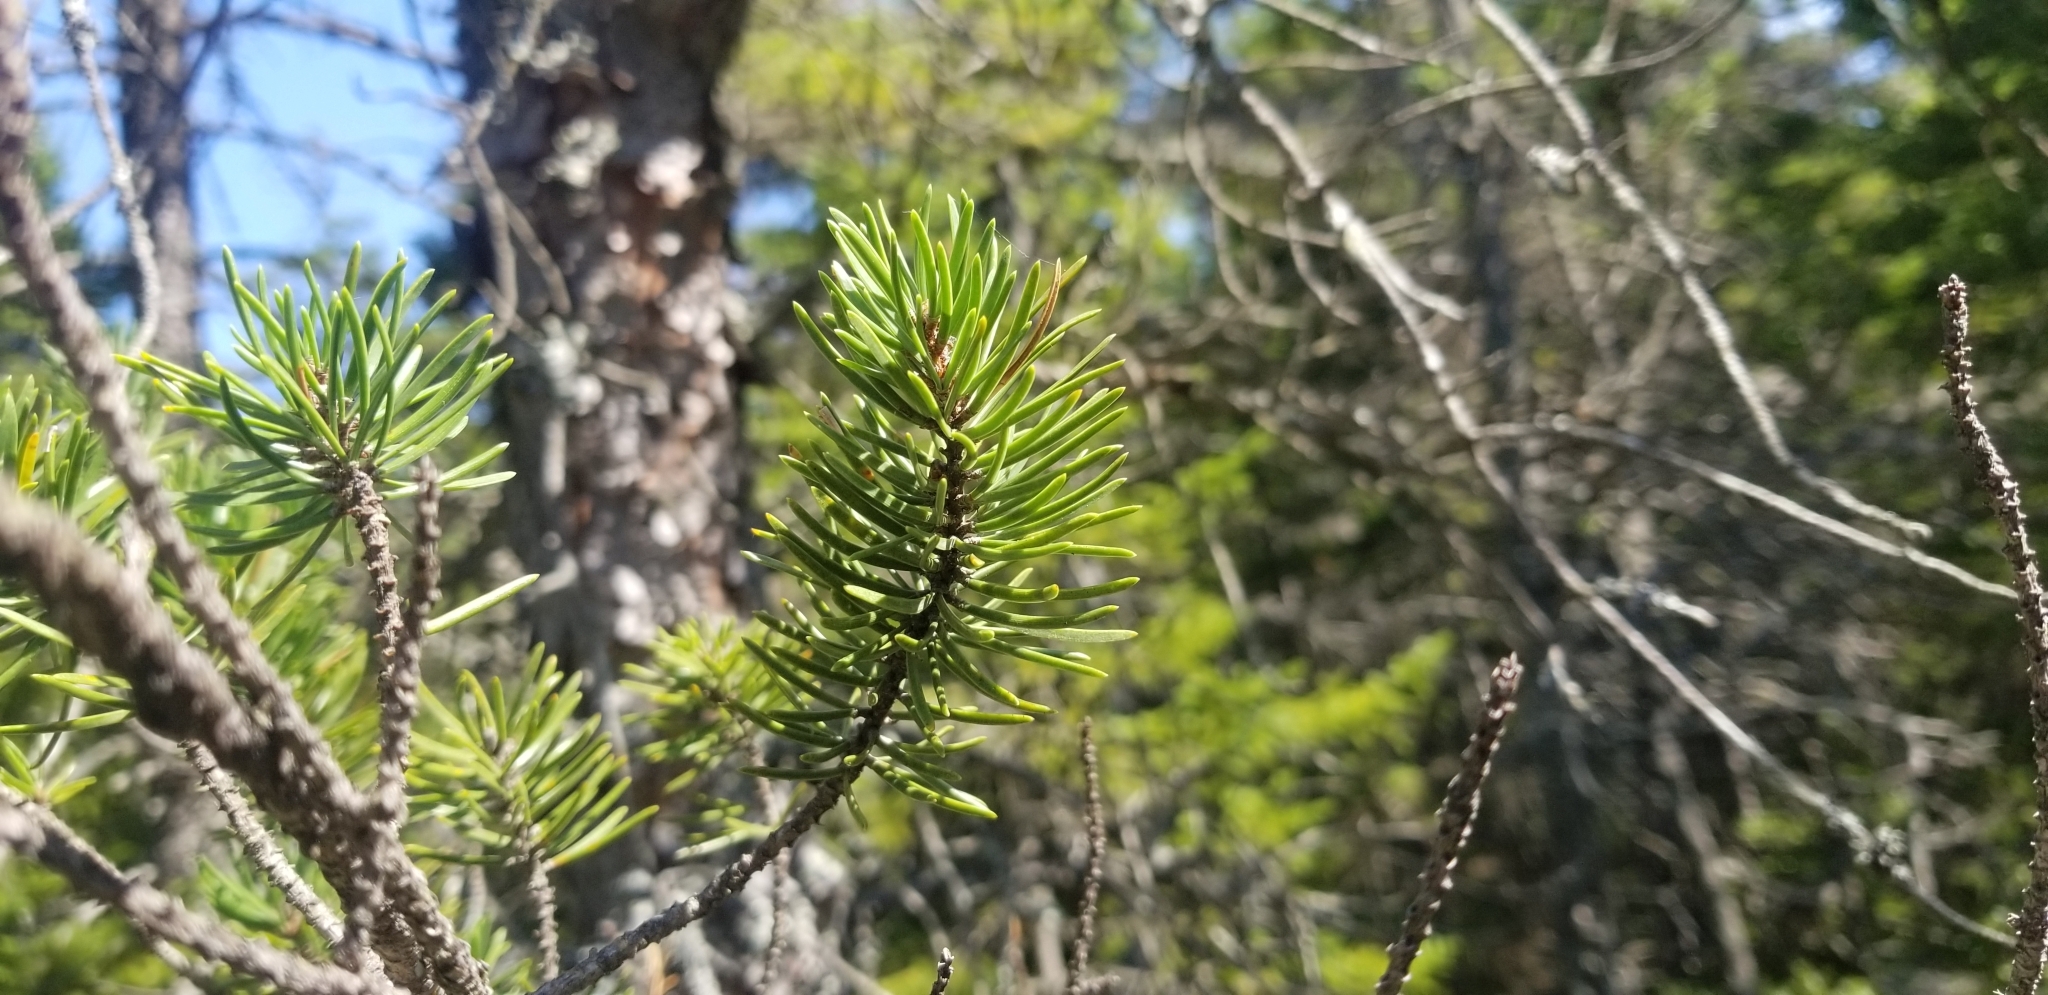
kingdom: Plantae
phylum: Tracheophyta
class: Pinopsida
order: Pinales
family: Pinaceae
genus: Pinus
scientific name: Pinus banksiana
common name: Jack pine
